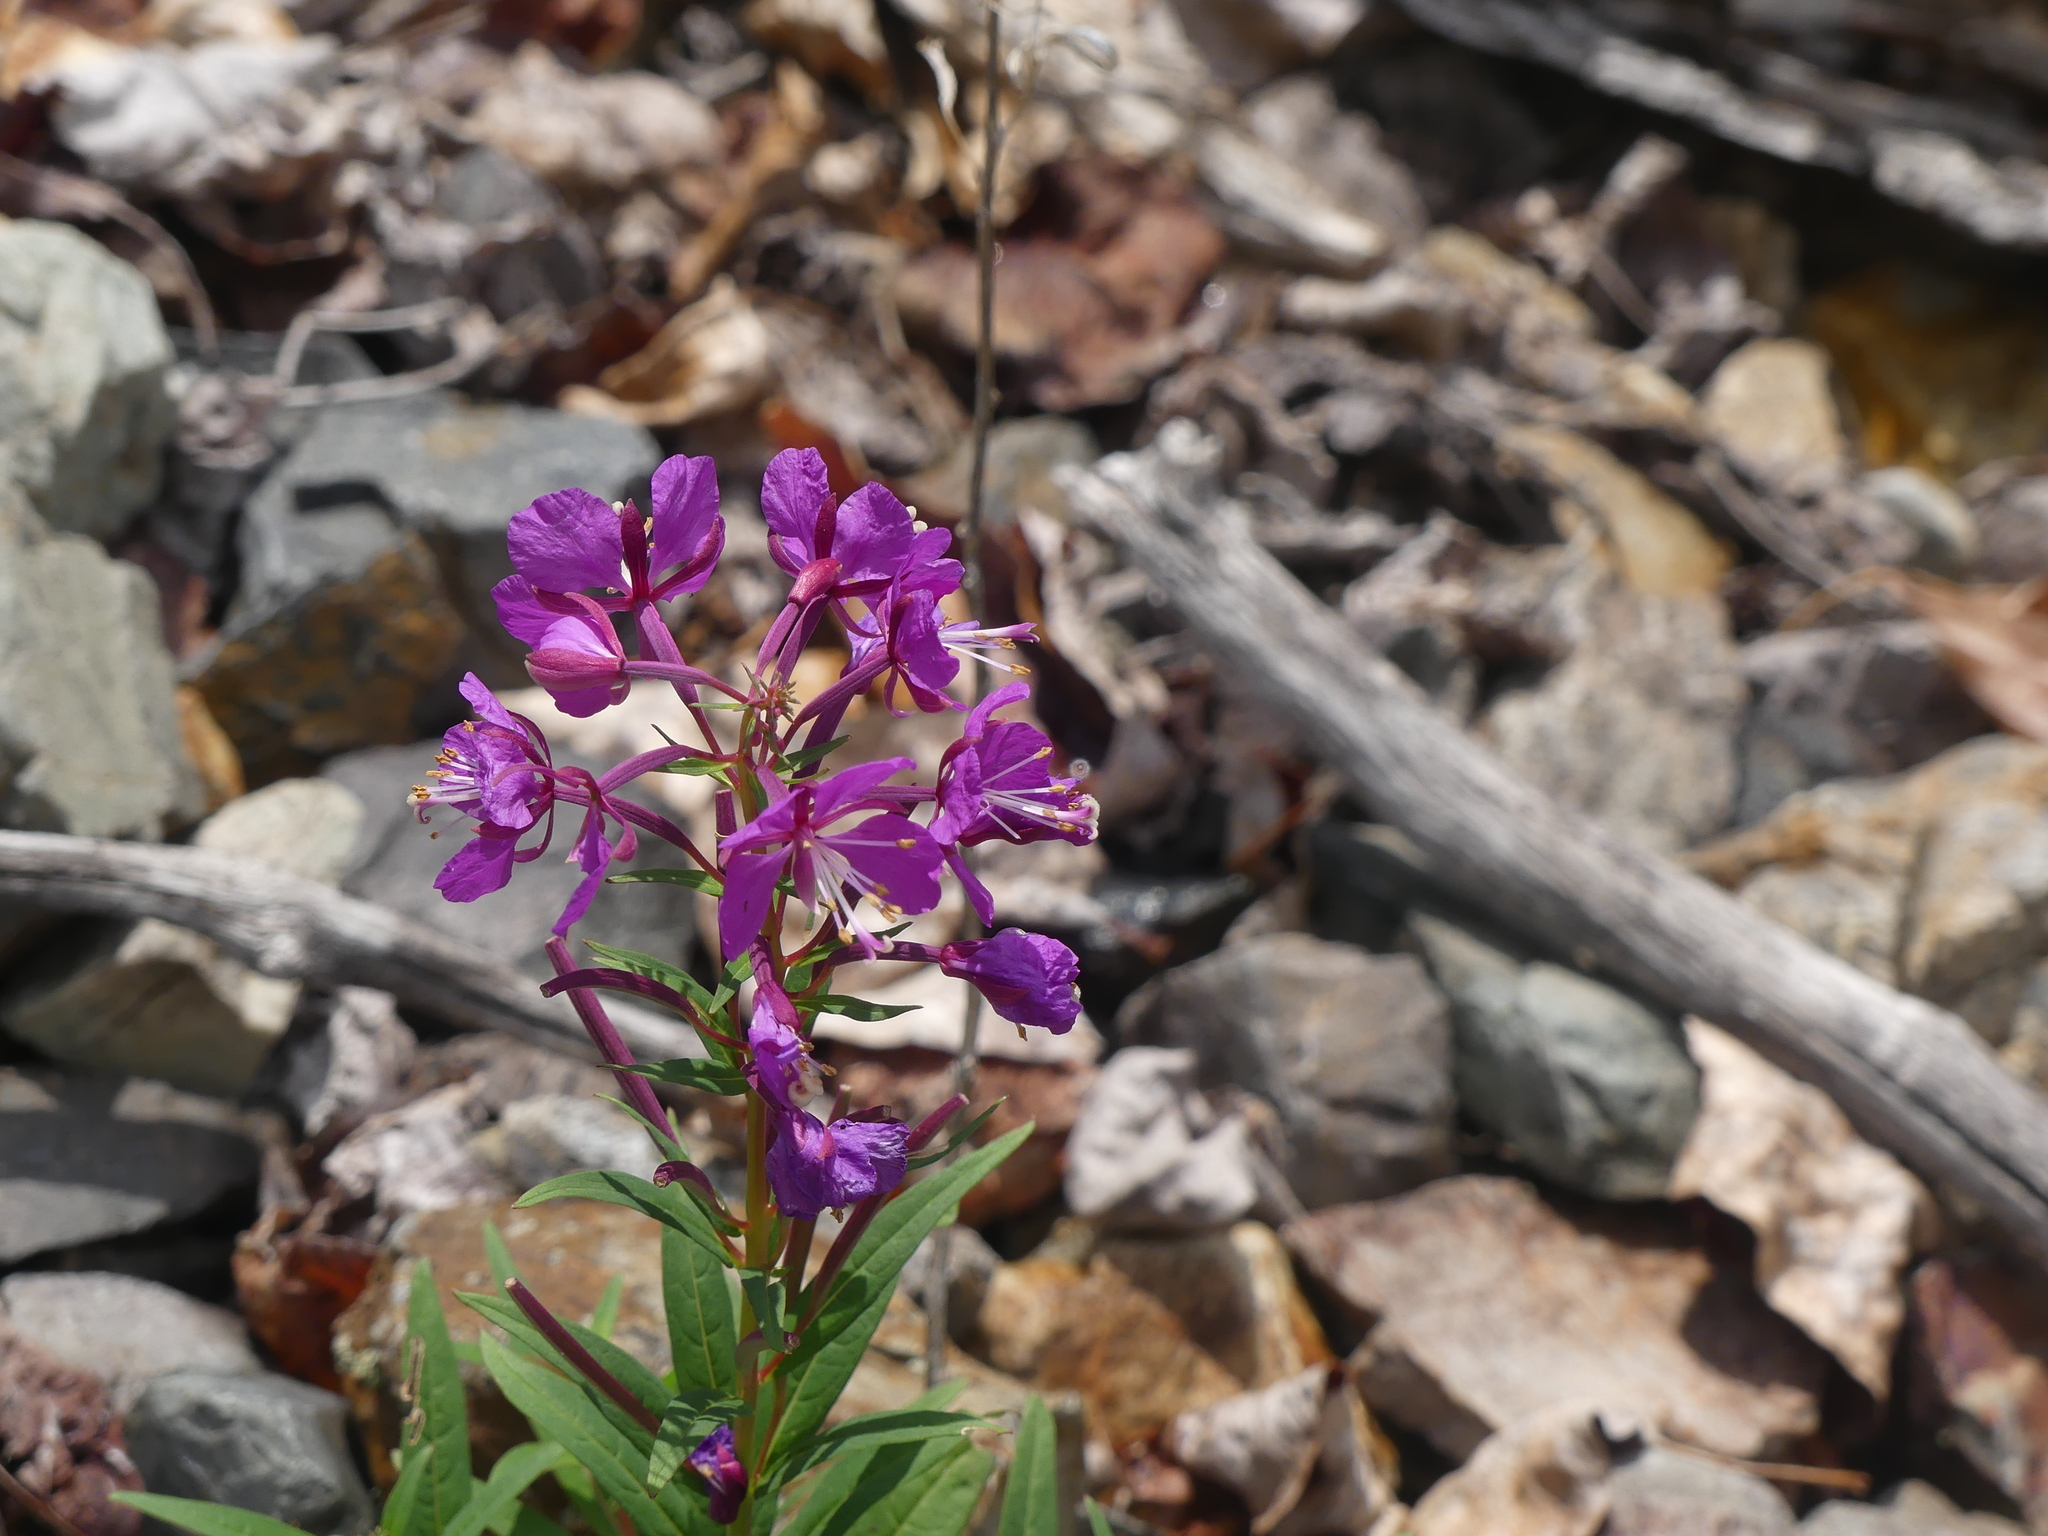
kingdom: Plantae
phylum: Tracheophyta
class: Magnoliopsida
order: Myrtales
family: Onagraceae
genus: Chamaenerion
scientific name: Chamaenerion angustifolium
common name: Fireweed
